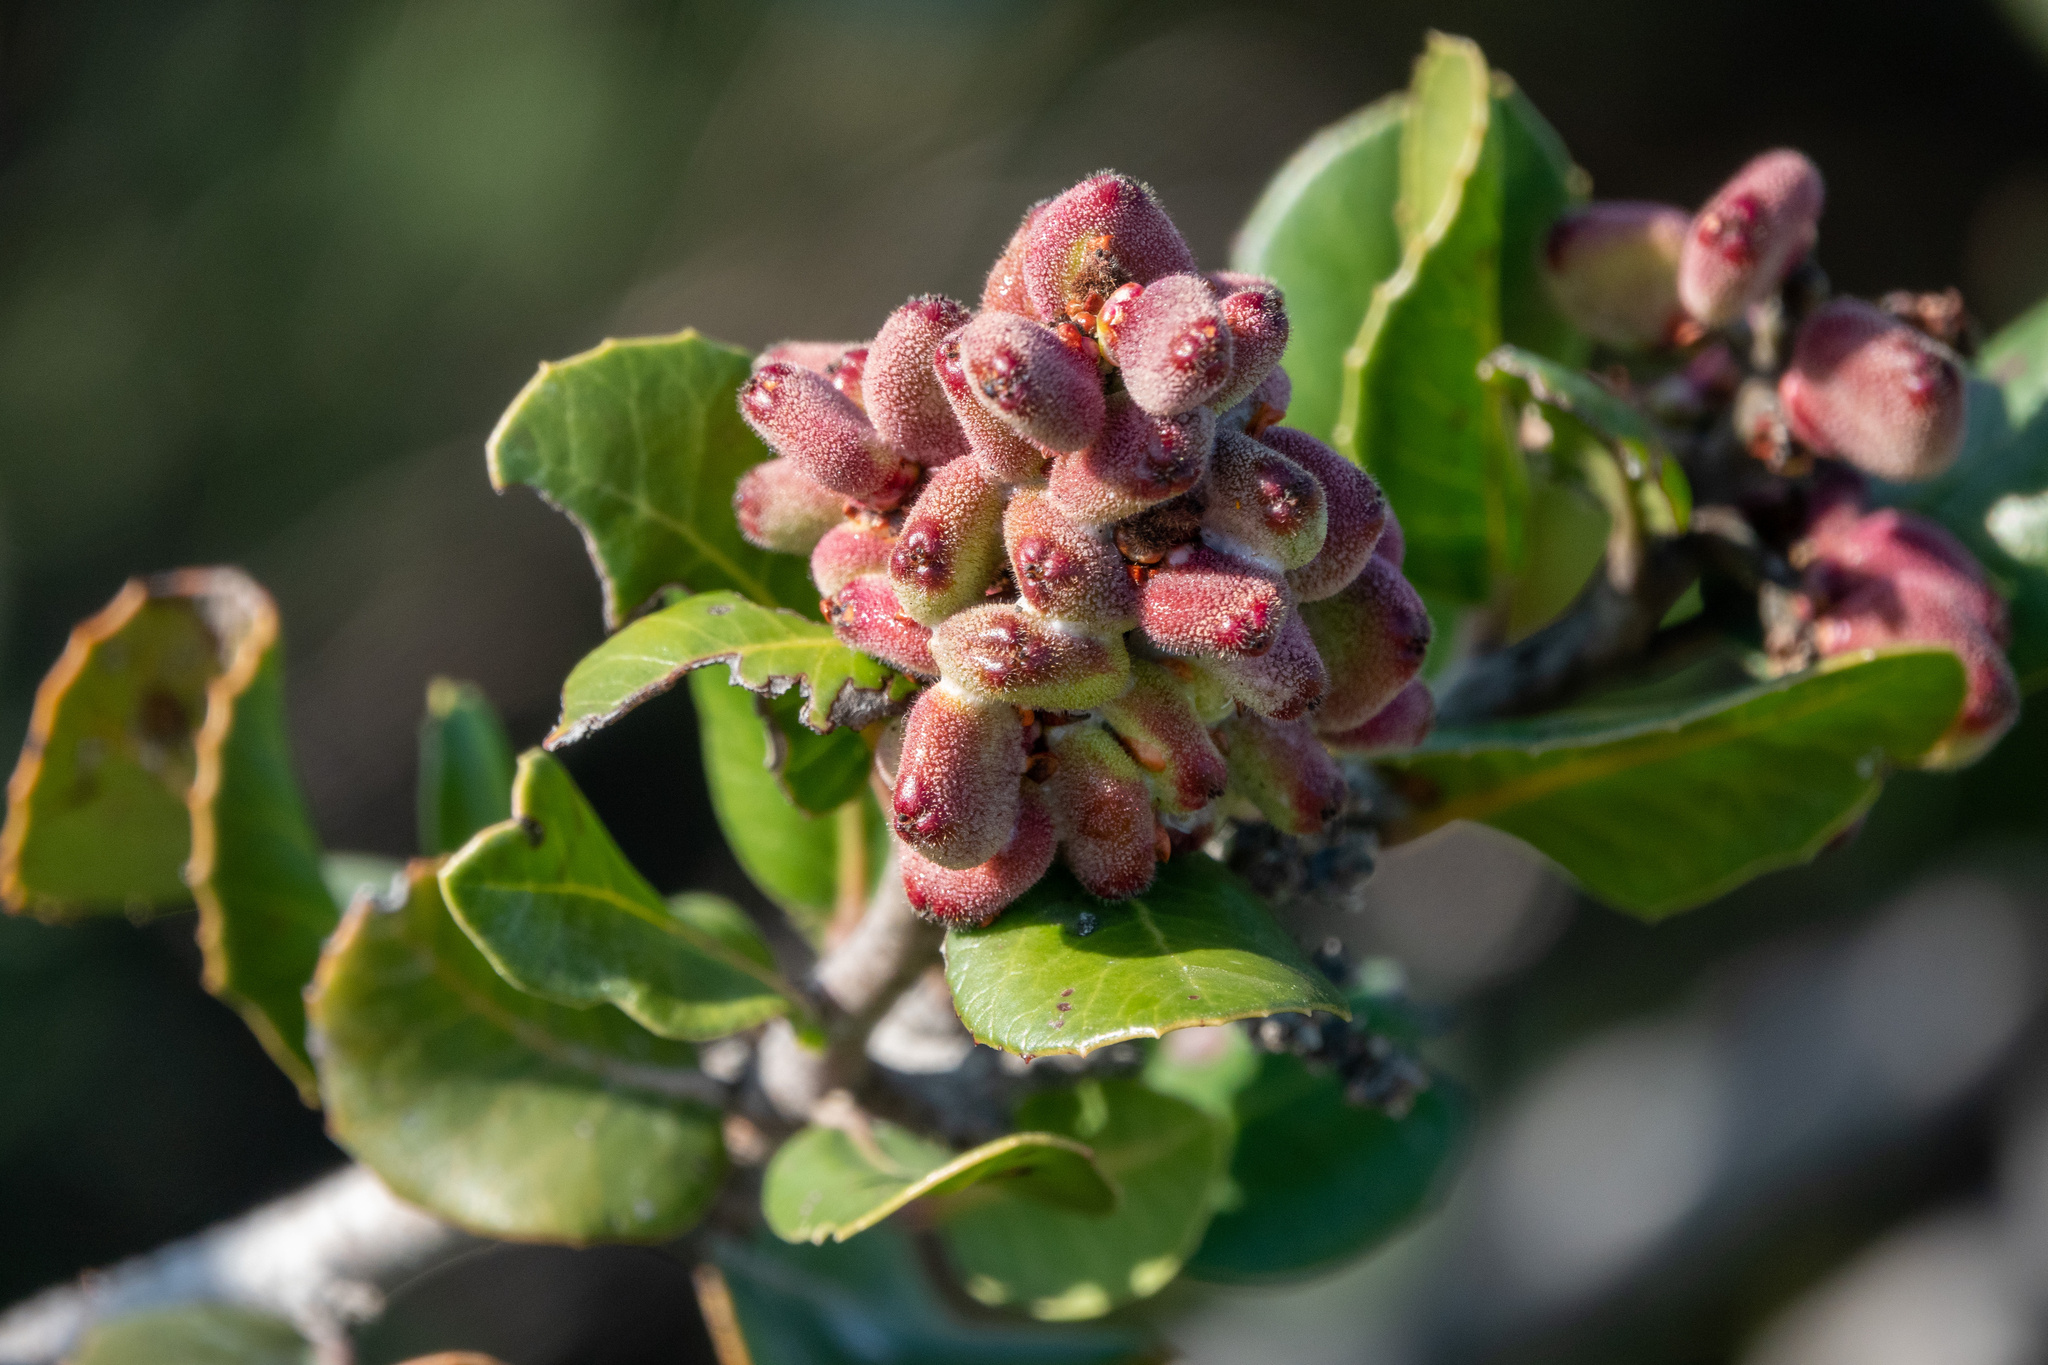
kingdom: Plantae
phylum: Tracheophyta
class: Magnoliopsida
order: Sapindales
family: Anacardiaceae
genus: Rhus
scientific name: Rhus integrifolia
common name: Lemonade sumac
